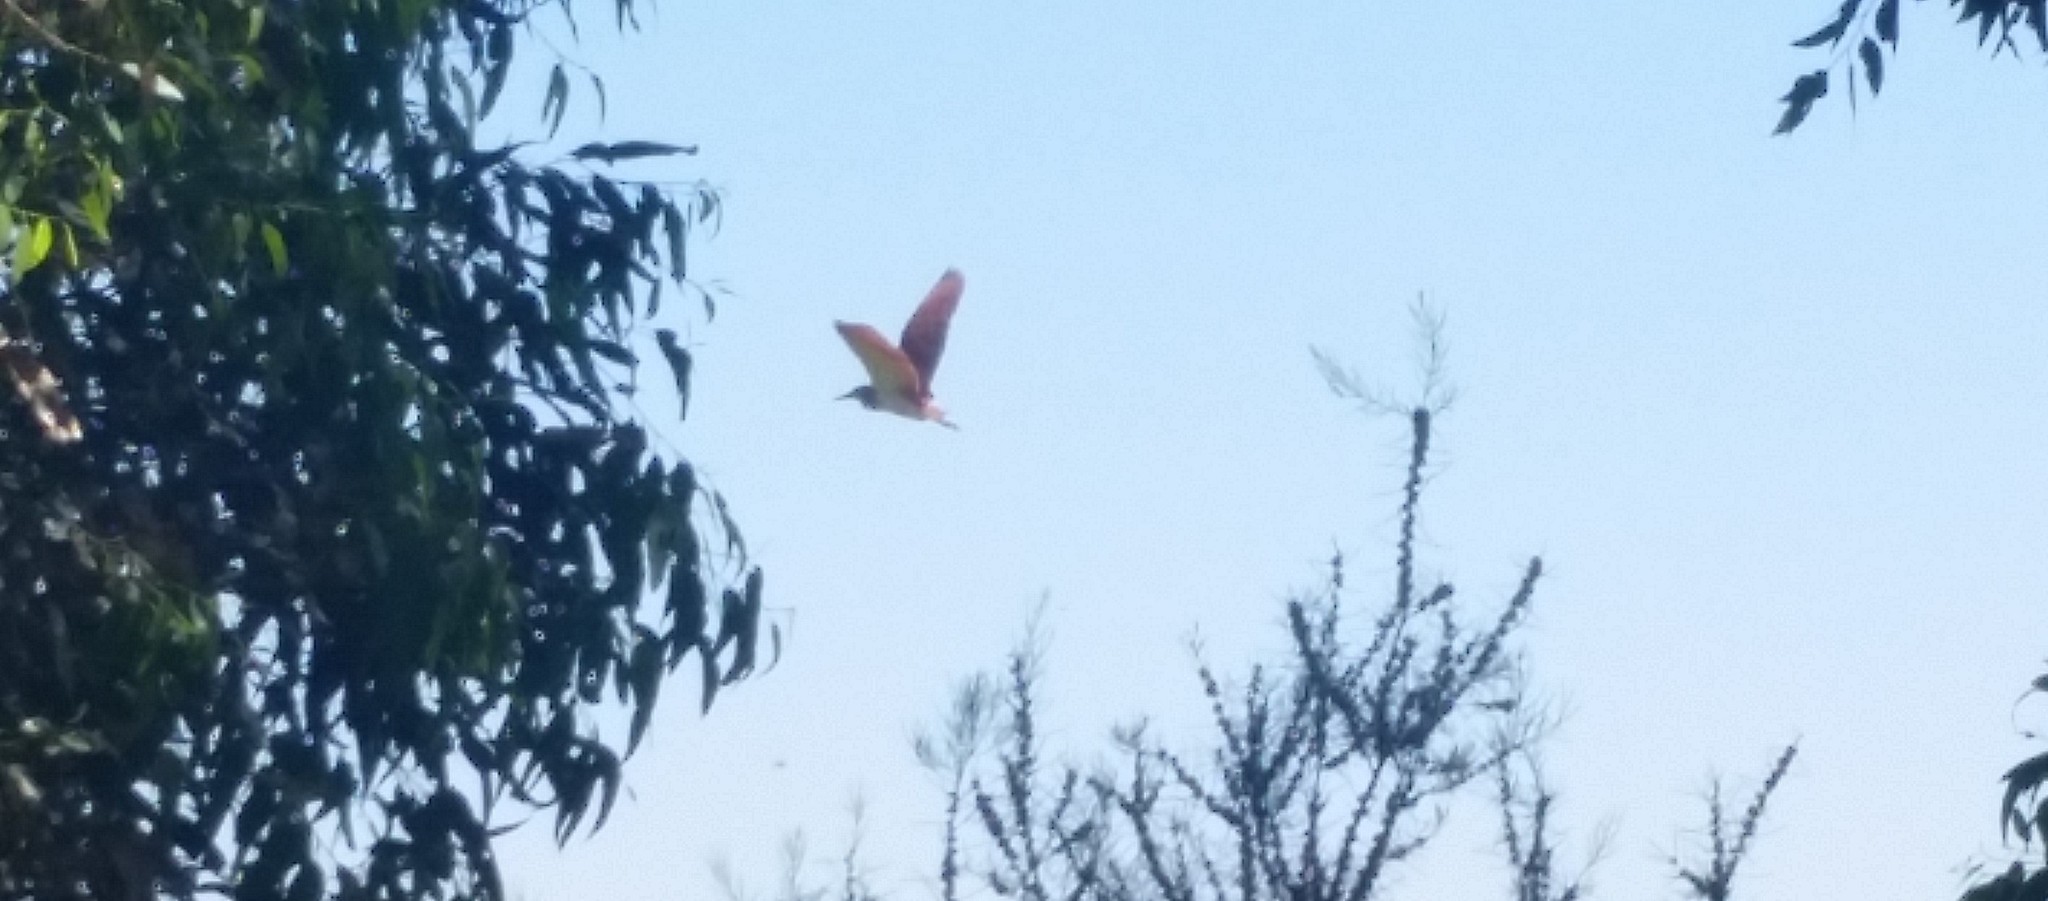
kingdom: Animalia
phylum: Chordata
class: Aves
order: Pelecaniformes
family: Ardeidae
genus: Nycticorax
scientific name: Nycticorax caledonicus
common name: Rufous night-heron
